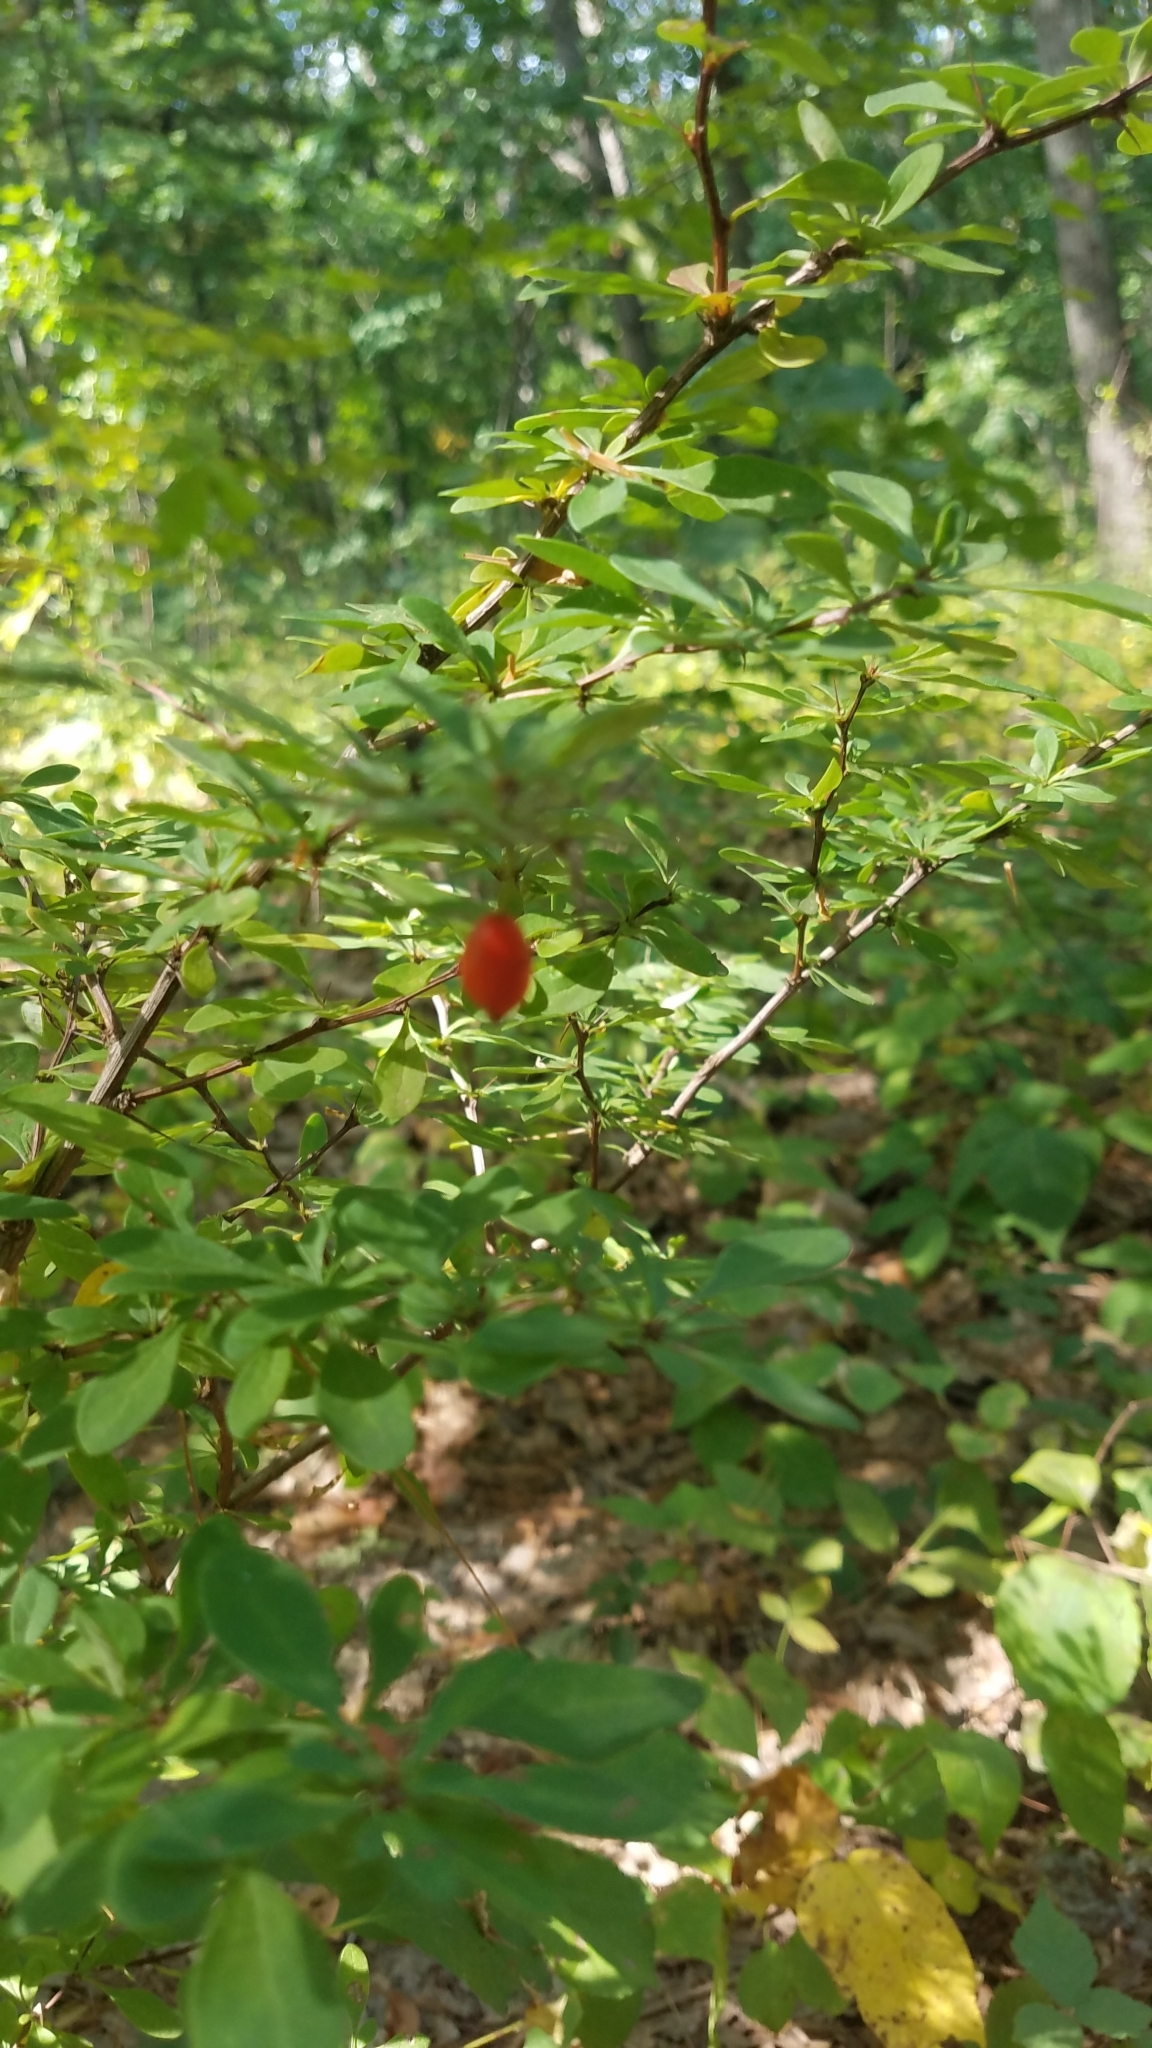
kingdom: Plantae
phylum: Tracheophyta
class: Magnoliopsida
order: Ranunculales
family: Berberidaceae
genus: Berberis
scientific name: Berberis thunbergii
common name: Japanese barberry
